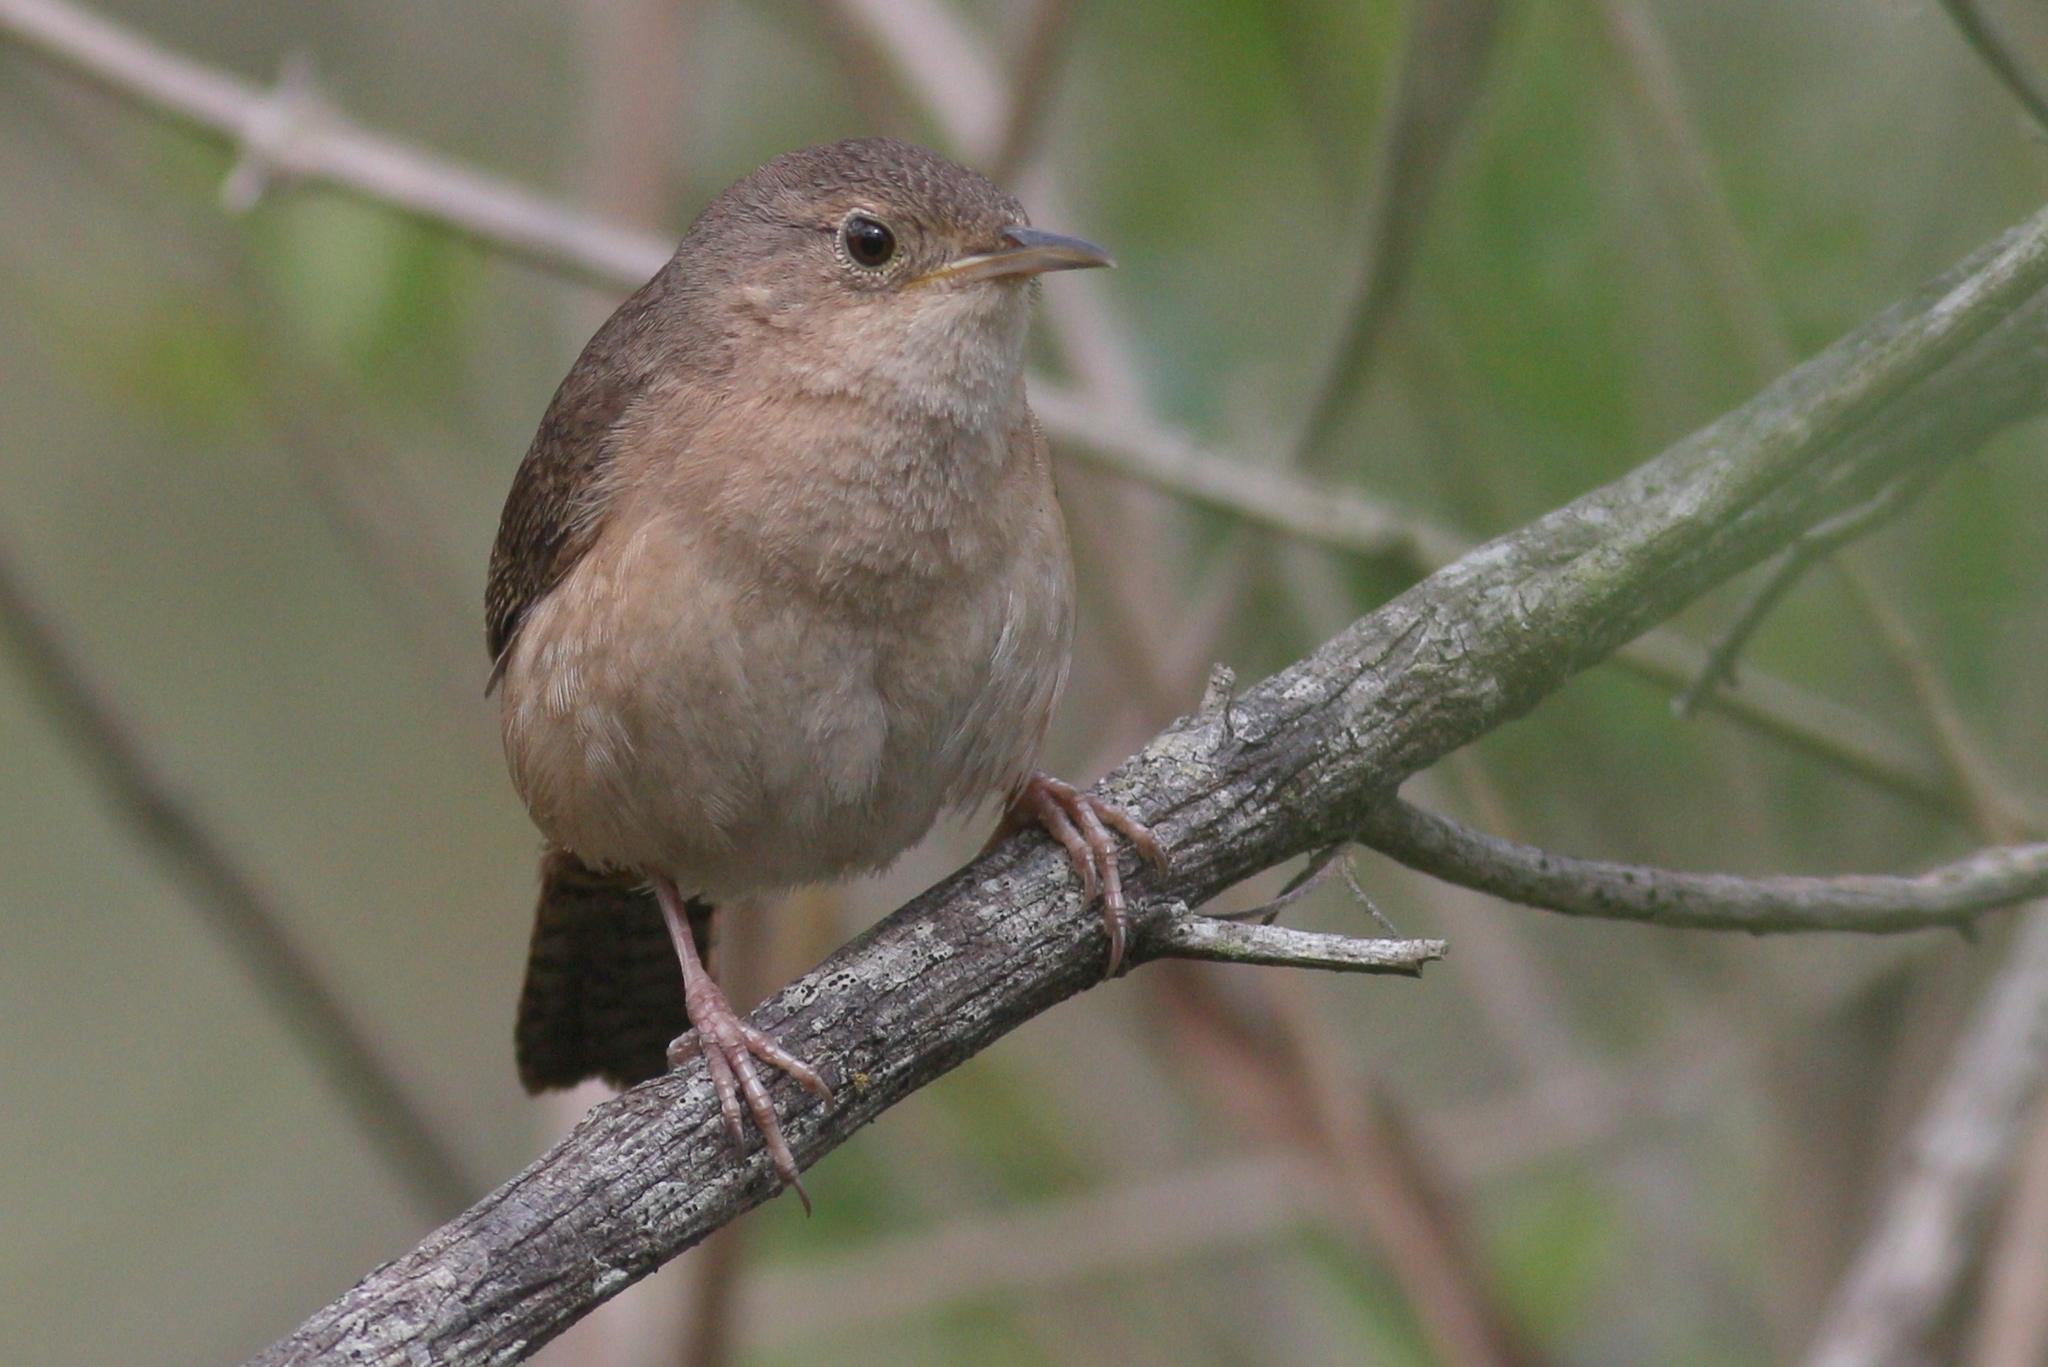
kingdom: Animalia
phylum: Chordata
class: Aves
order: Passeriformes
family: Troglodytidae
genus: Troglodytes
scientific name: Troglodytes aedon
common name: House wren
